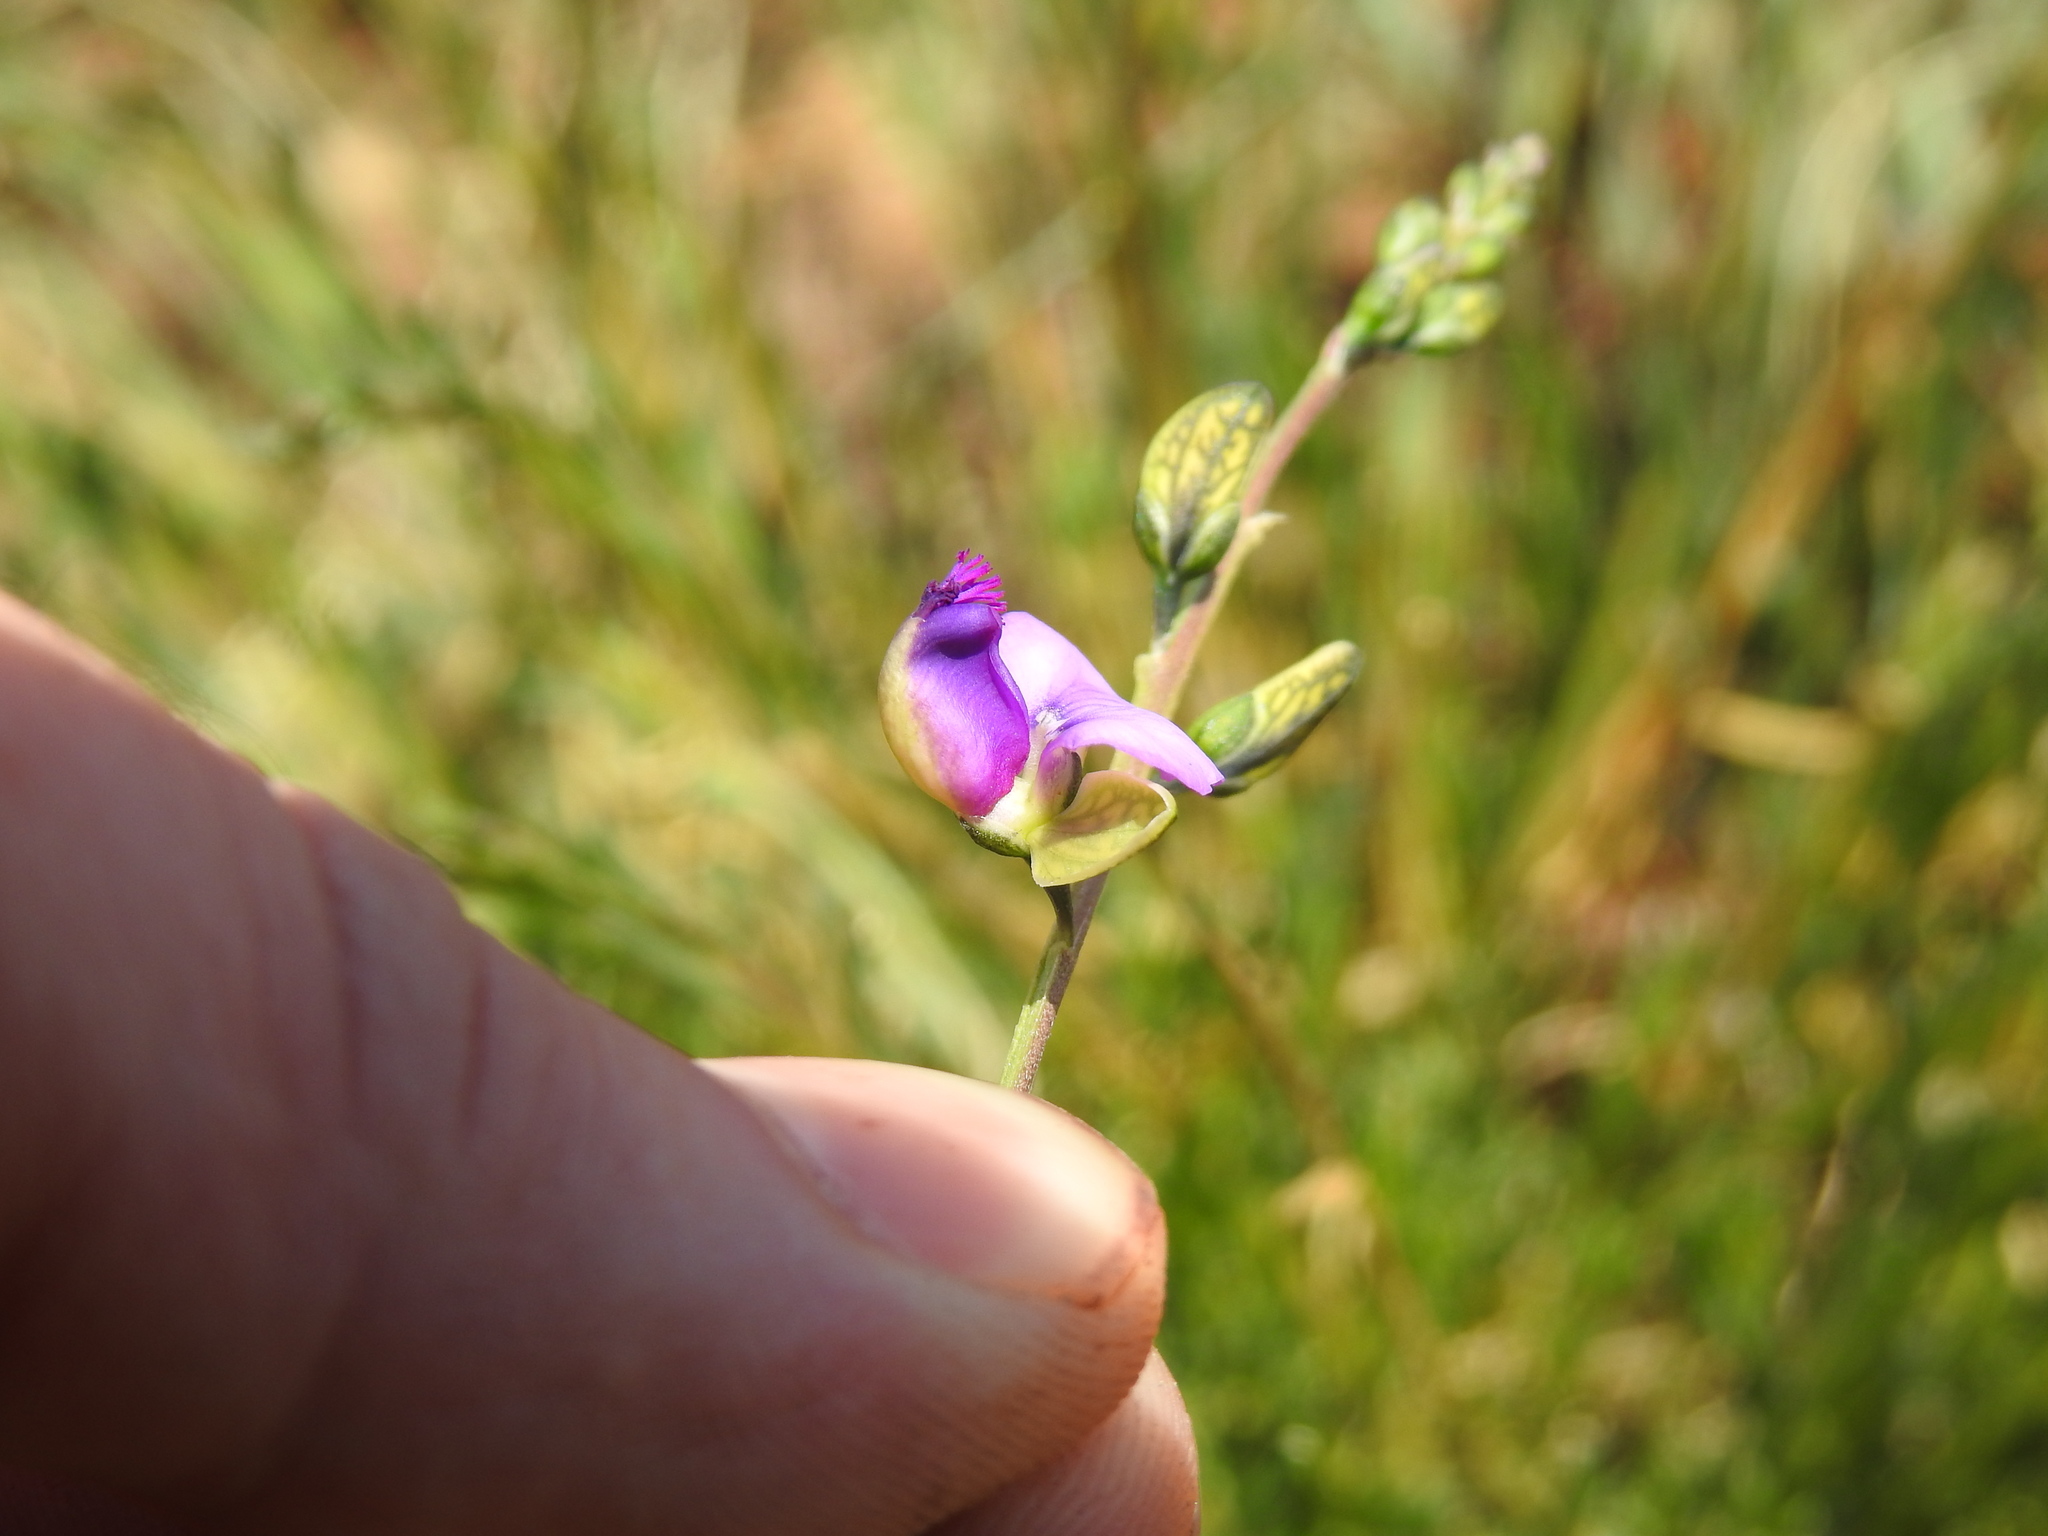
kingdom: Plantae
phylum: Tracheophyta
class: Magnoliopsida
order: Fabales
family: Polygalaceae
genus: Polygala
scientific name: Polygala rehmannii
